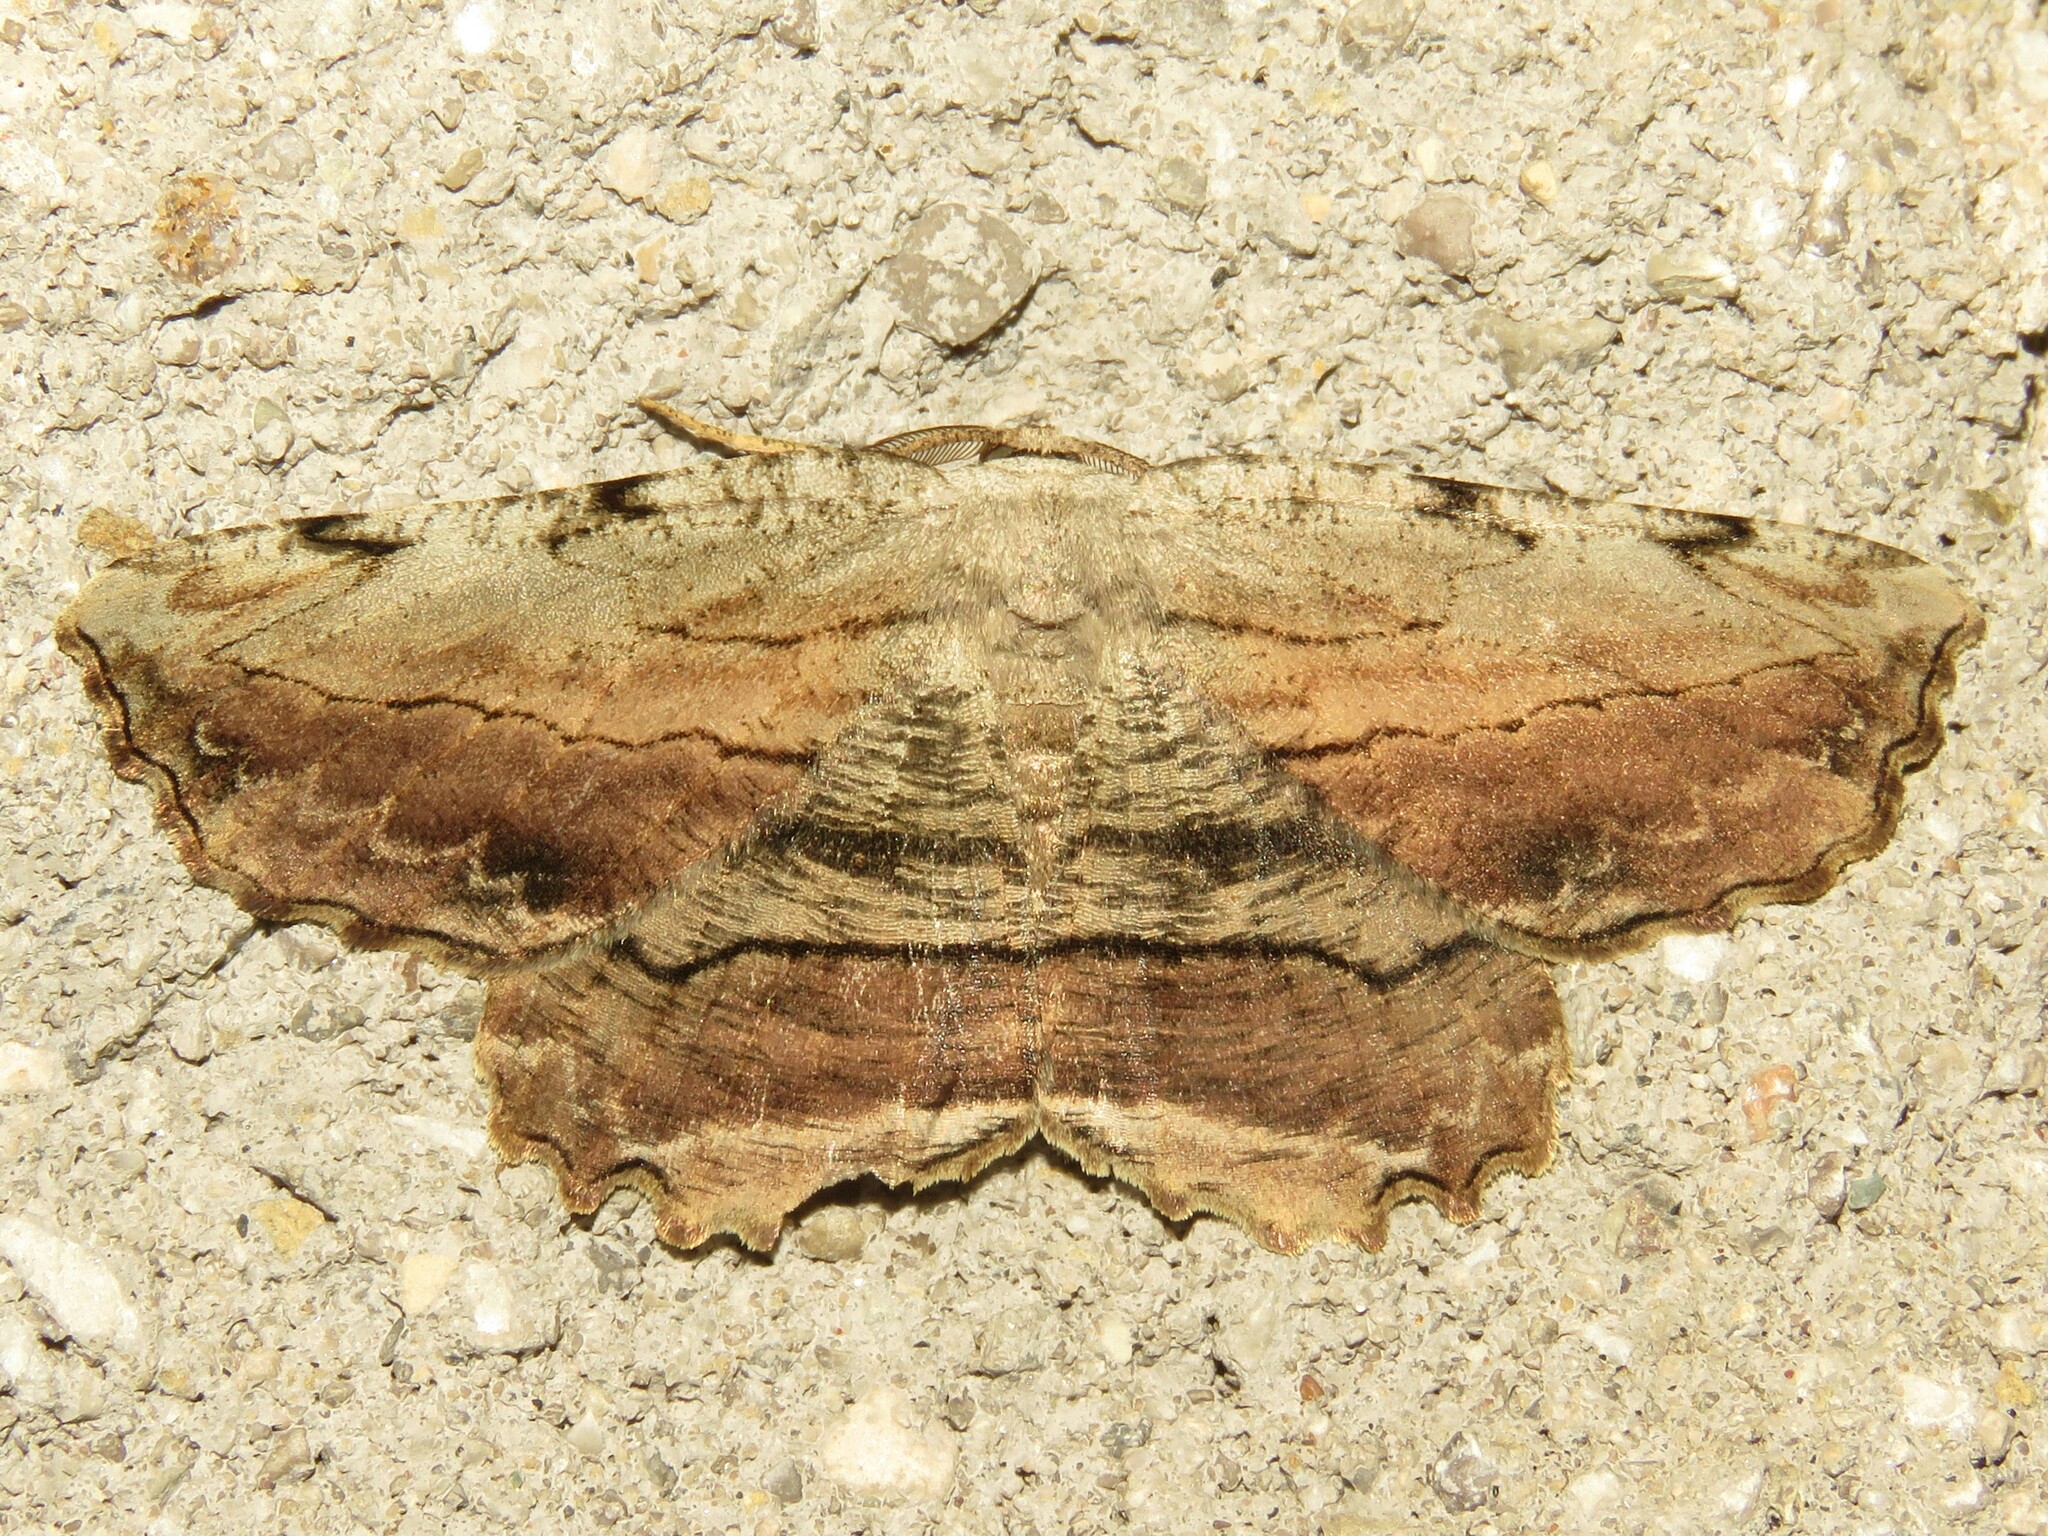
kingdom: Animalia
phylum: Arthropoda
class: Insecta
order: Lepidoptera
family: Geometridae
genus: Lytrosis
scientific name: Lytrosis unitaria
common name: Common lytrosis
